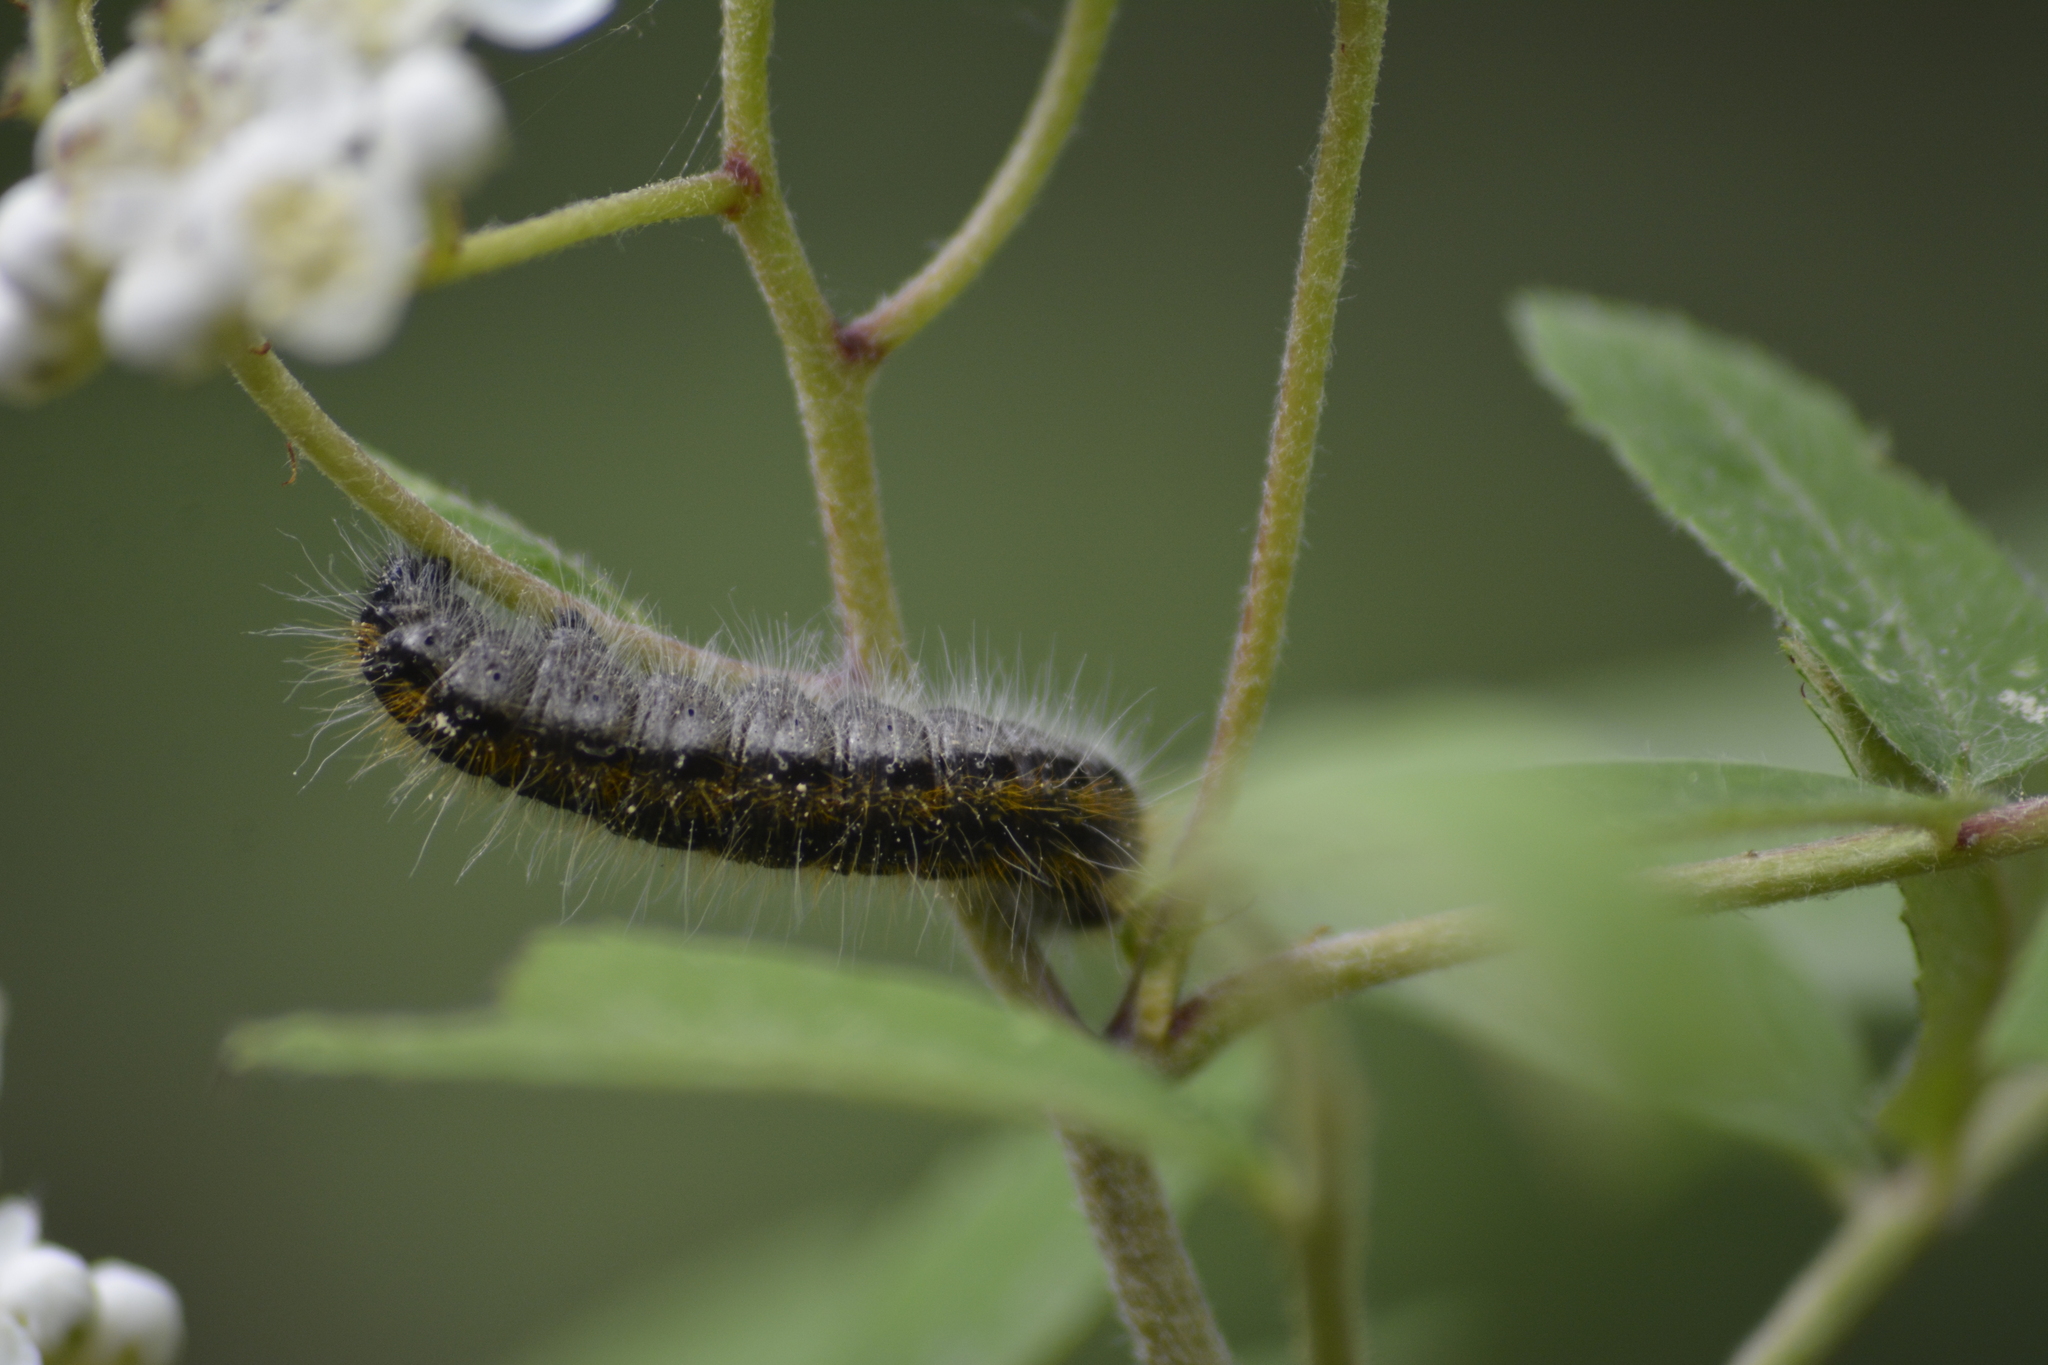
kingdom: Animalia
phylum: Arthropoda
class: Insecta
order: Lepidoptera
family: Pieridae
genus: Aporia
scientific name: Aporia crataegi
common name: Black-veined white
